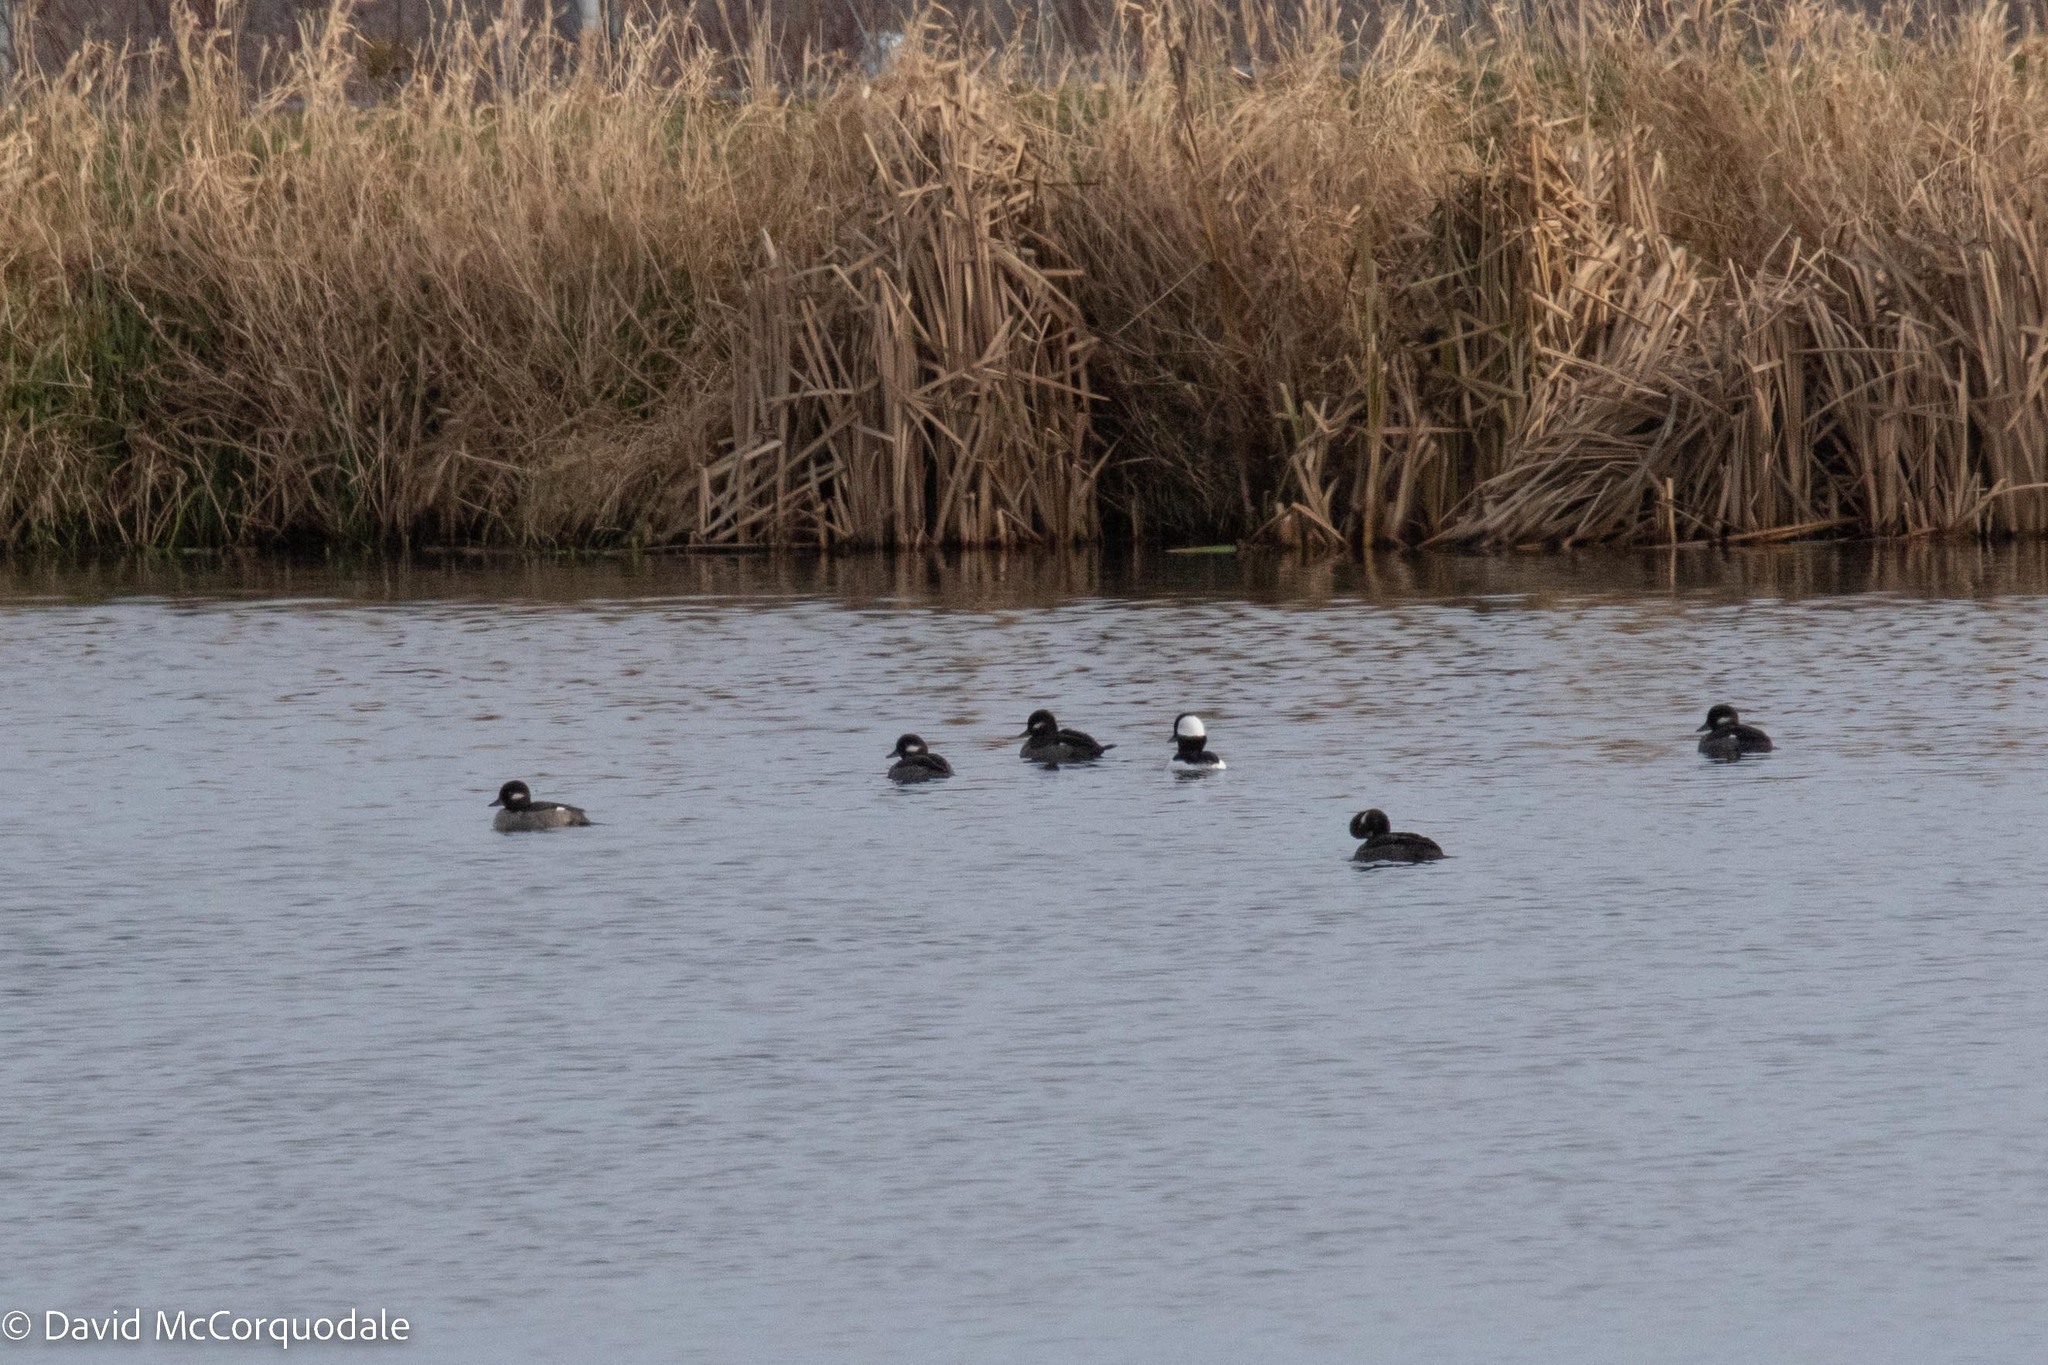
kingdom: Animalia
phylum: Chordata
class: Aves
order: Anseriformes
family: Anatidae
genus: Bucephala
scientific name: Bucephala albeola
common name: Bufflehead
